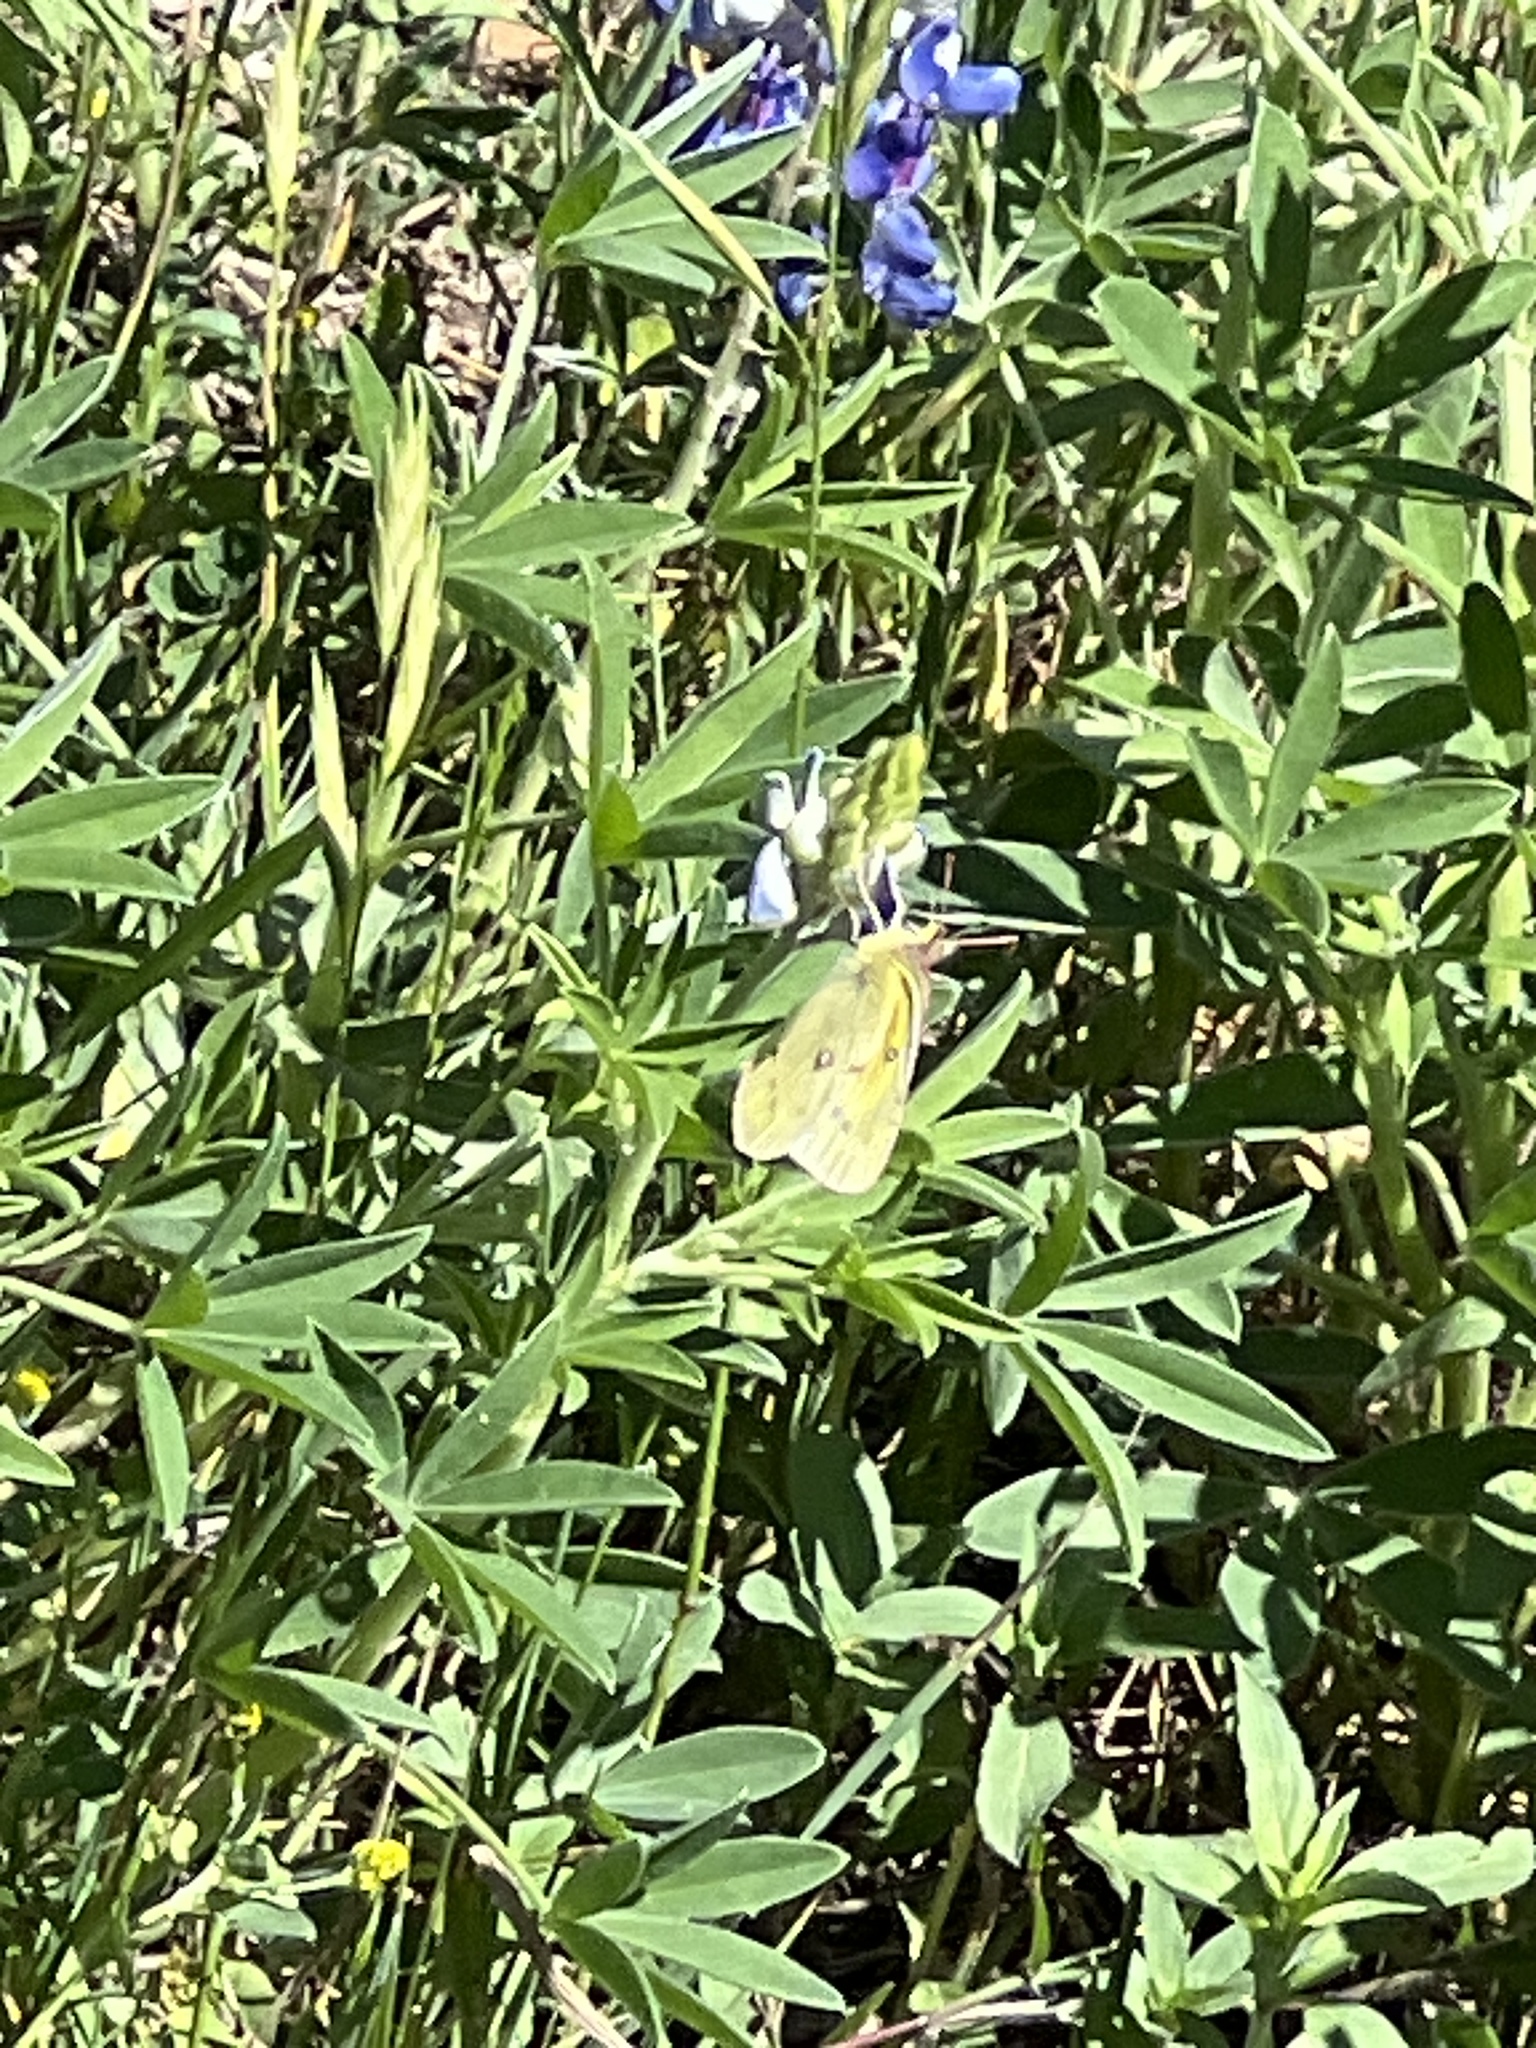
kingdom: Animalia
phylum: Arthropoda
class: Insecta
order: Lepidoptera
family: Pieridae
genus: Colias
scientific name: Colias eurytheme
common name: Alfalfa butterfly
